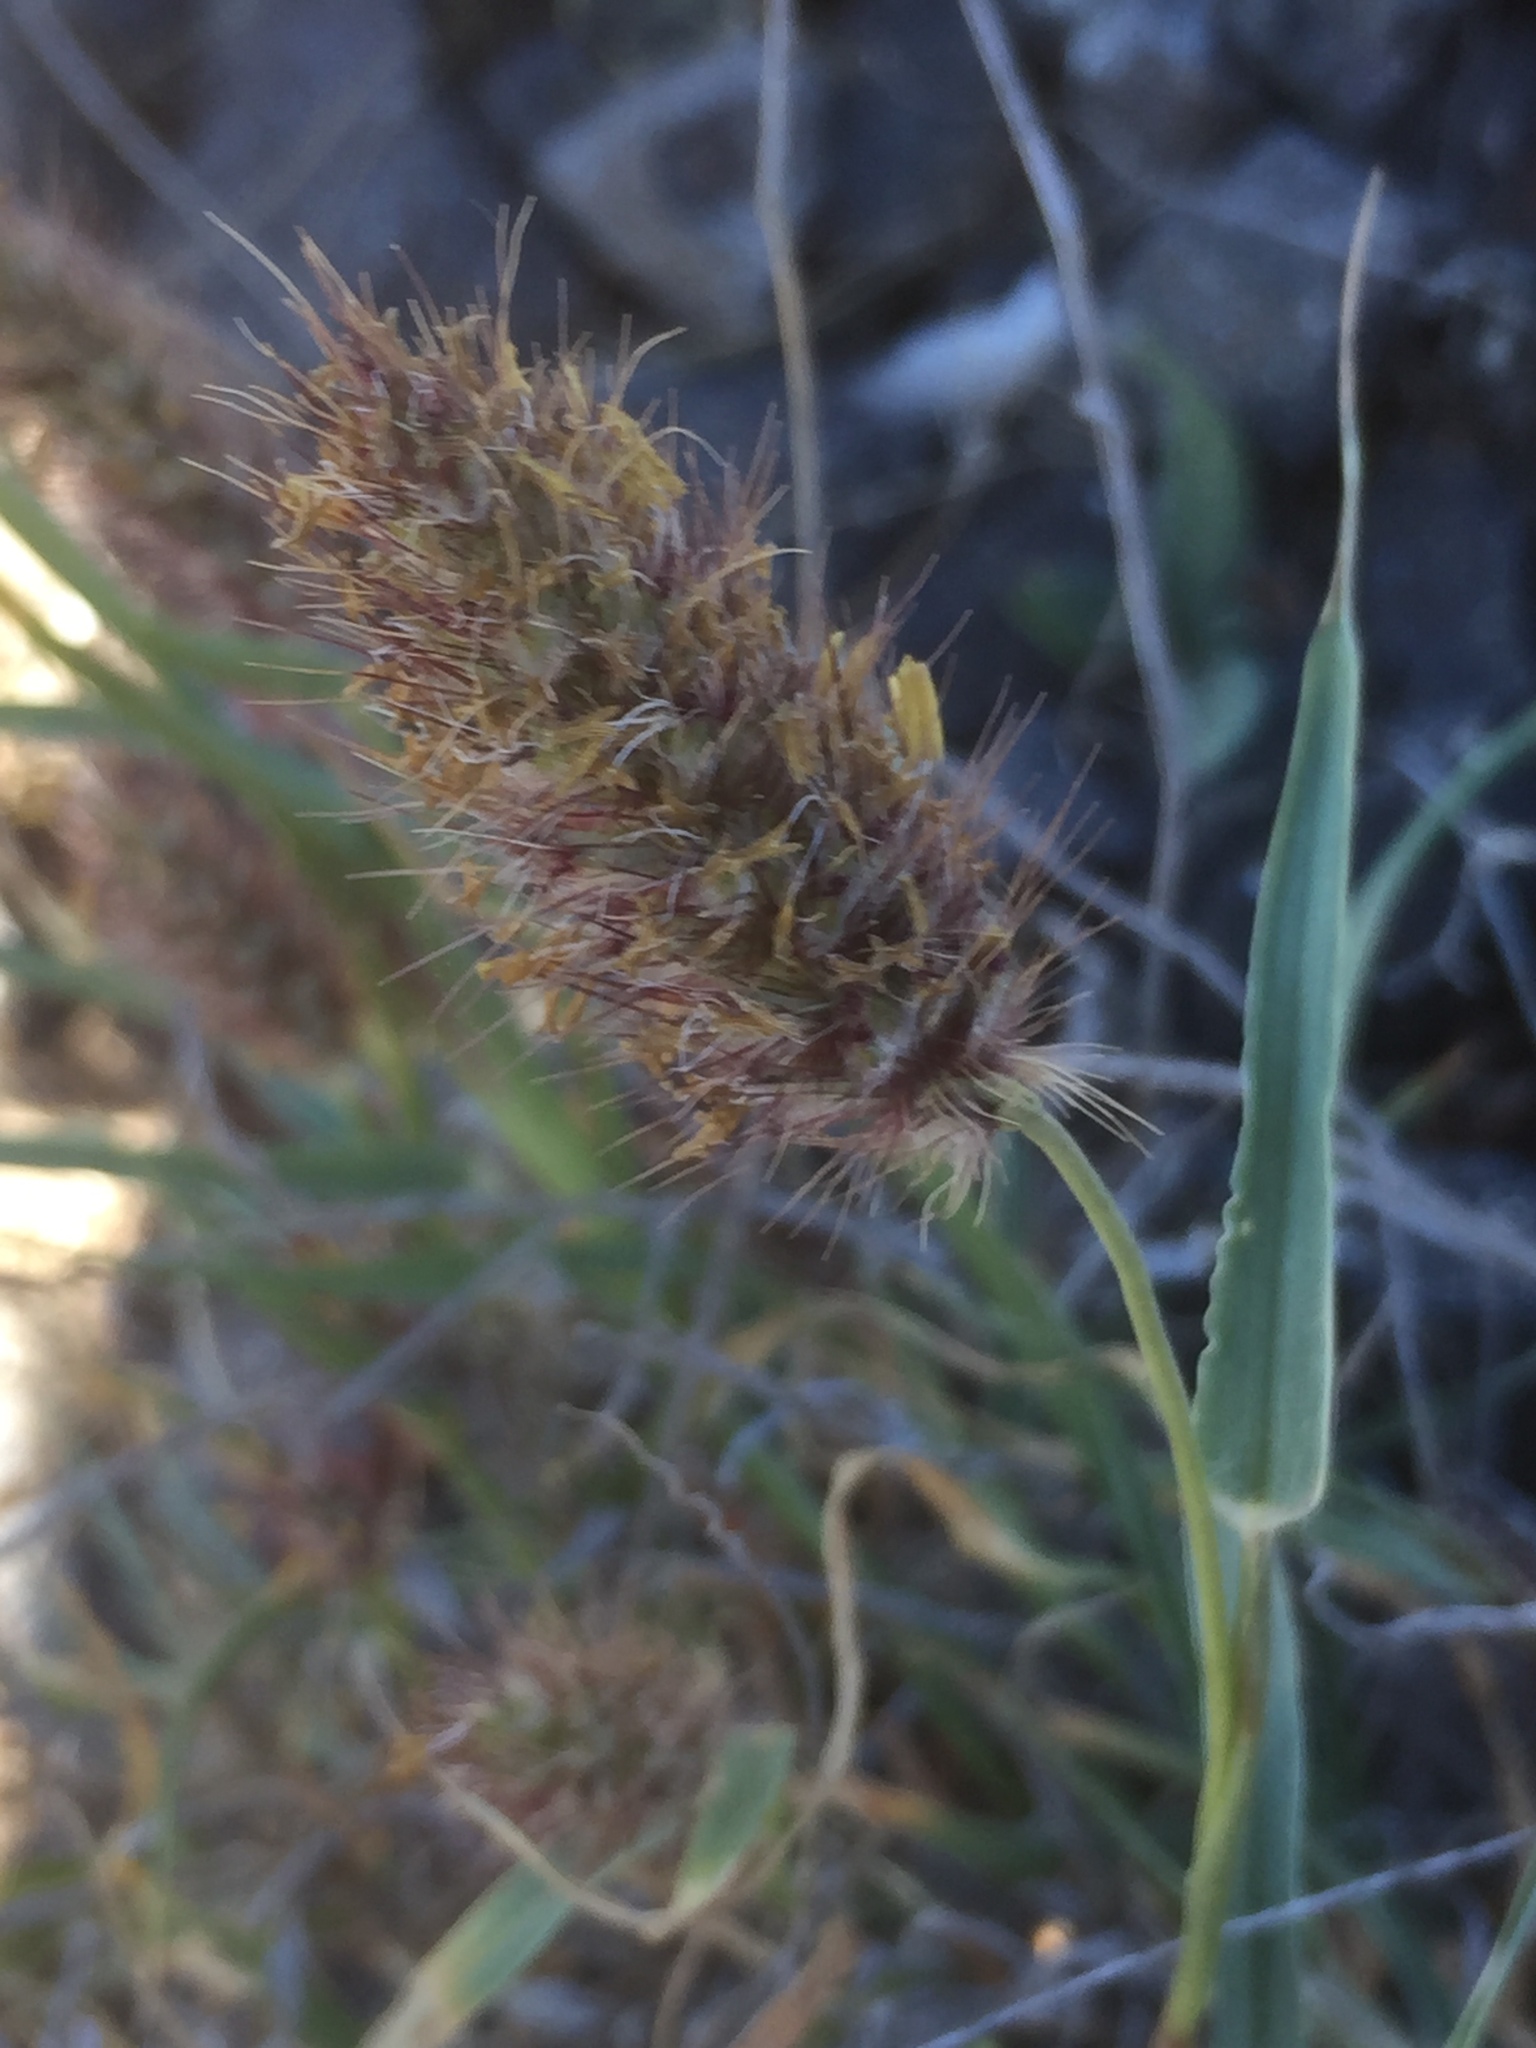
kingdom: Plantae
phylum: Tracheophyta
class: Liliopsida
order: Poales
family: Poaceae
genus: Cenchrus
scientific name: Cenchrus ciliaris
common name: Buffelgrass
